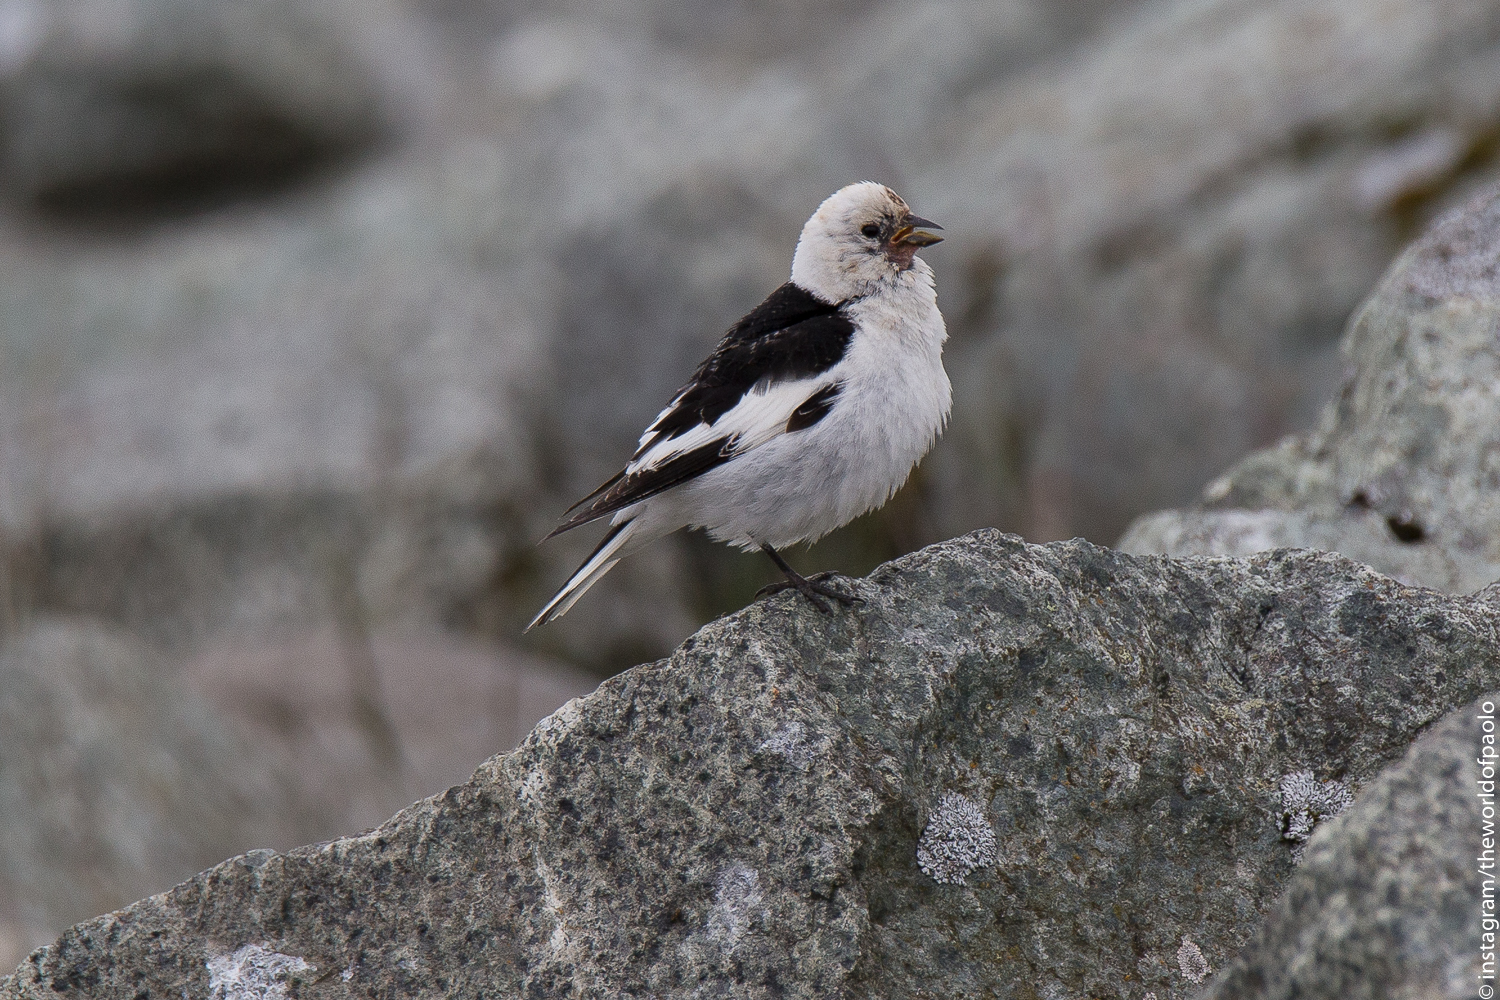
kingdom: Animalia
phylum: Chordata
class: Aves
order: Passeriformes
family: Calcariidae
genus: Plectrophenax
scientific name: Plectrophenax nivalis
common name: Snow bunting
